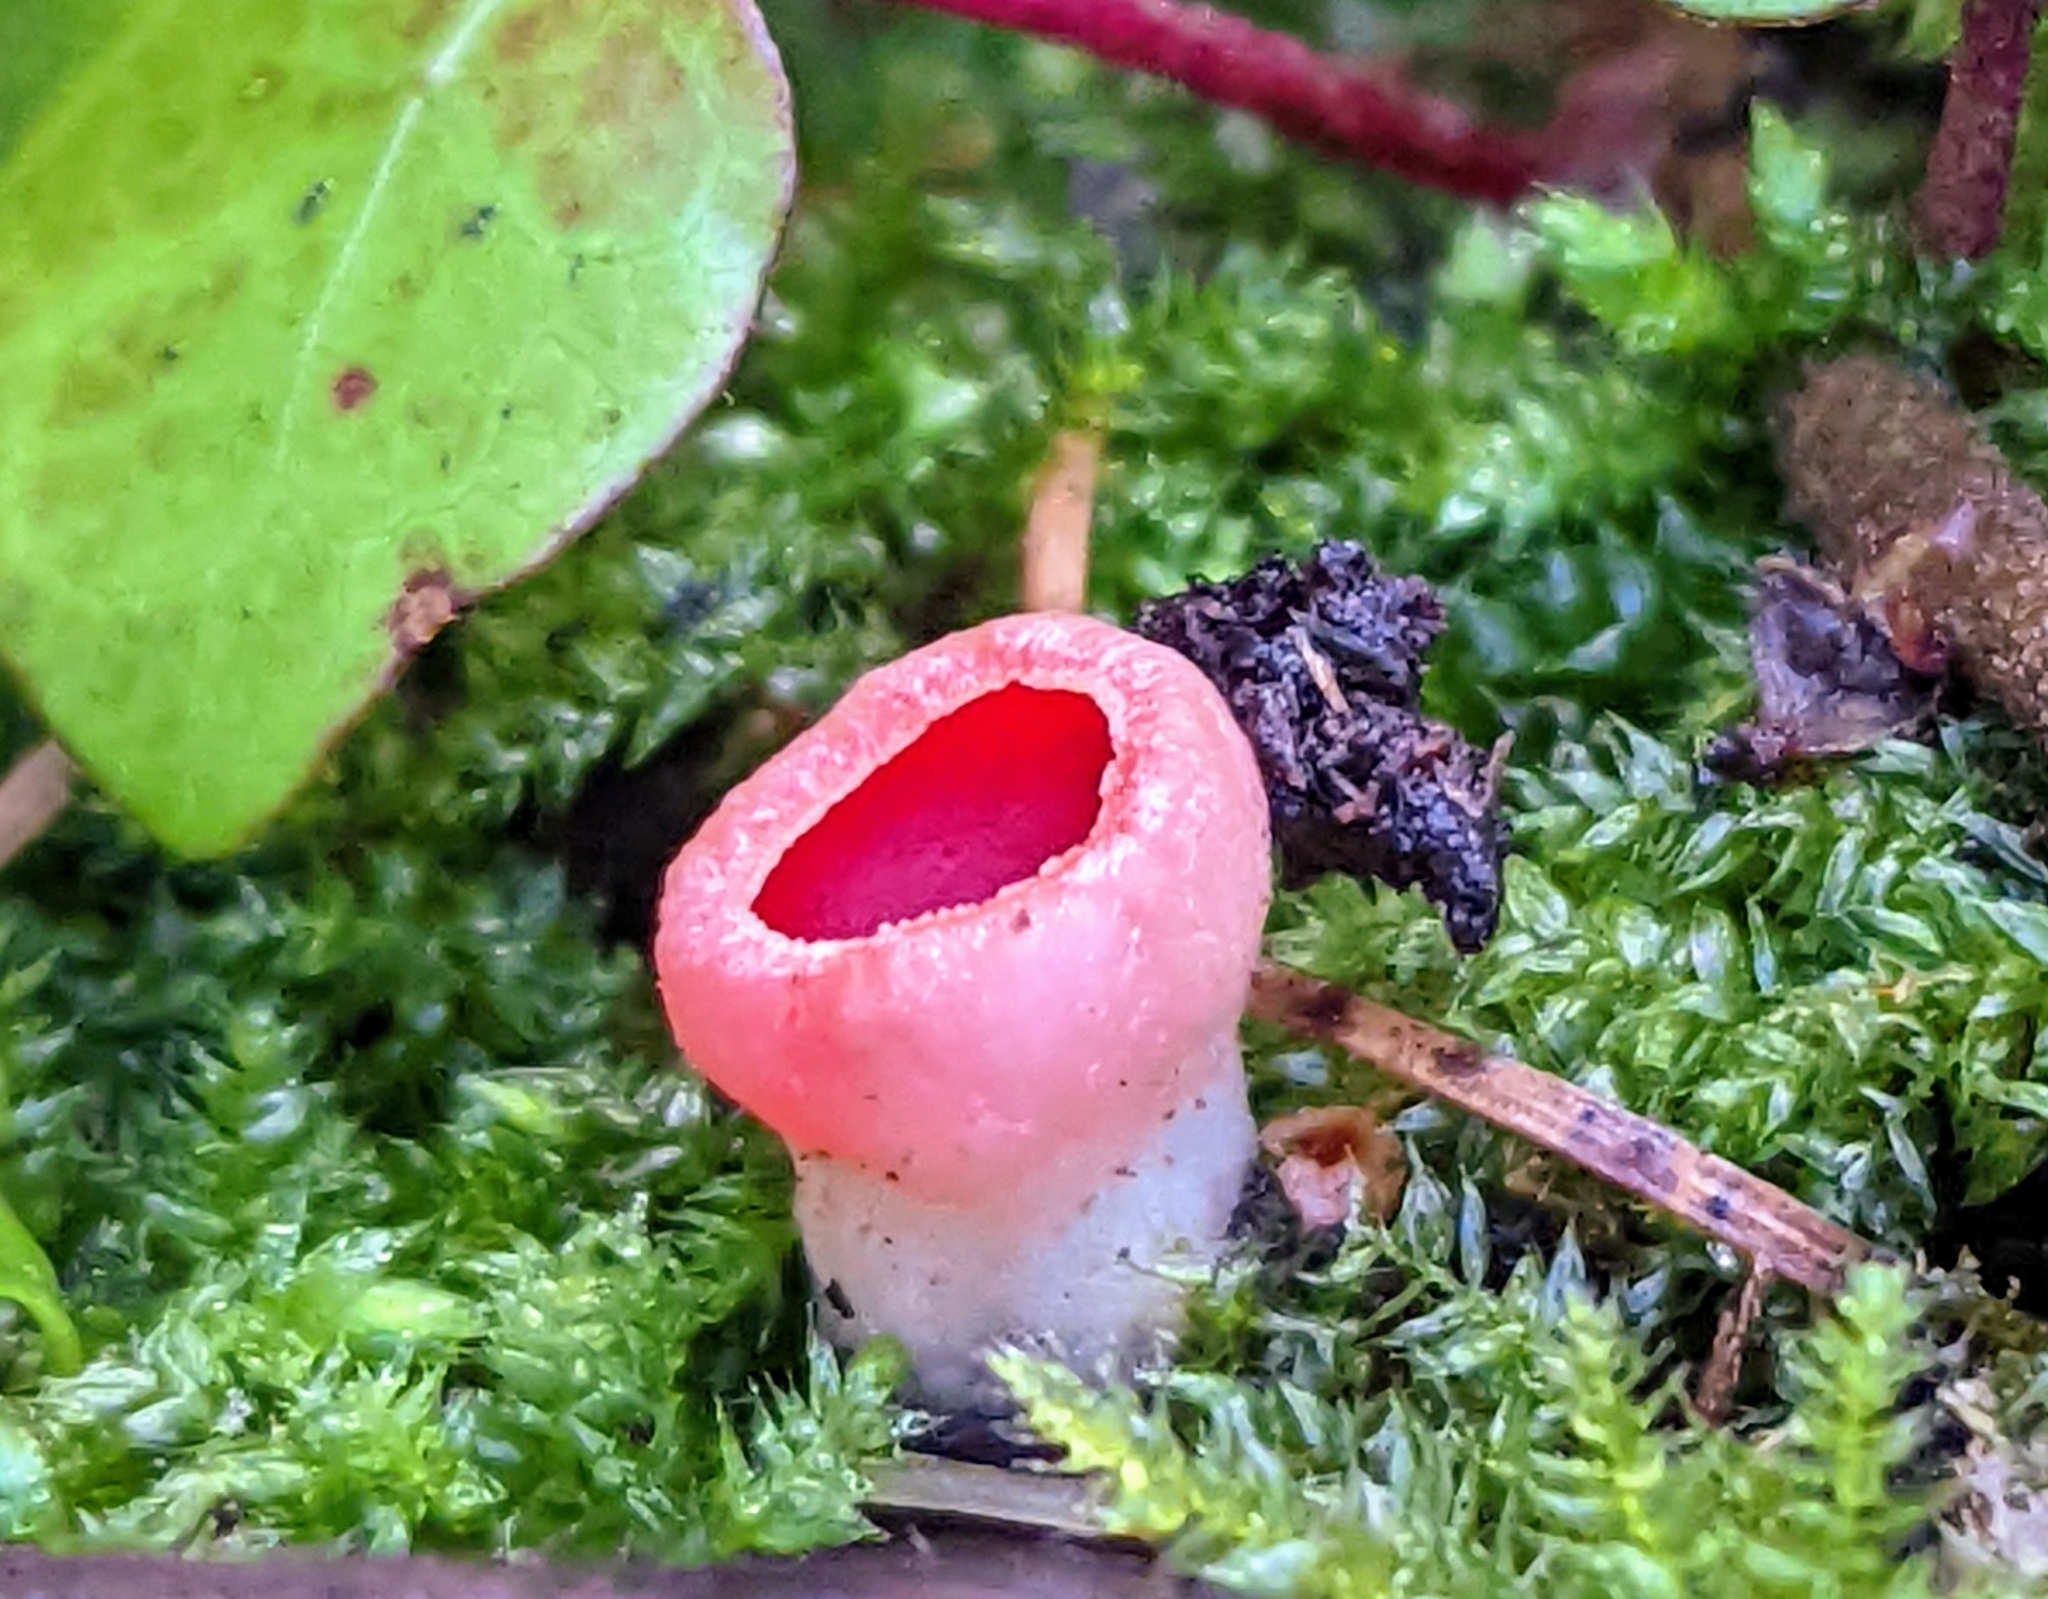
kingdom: Fungi
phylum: Ascomycota
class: Pezizomycetes
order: Pezizales
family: Sarcoscyphaceae
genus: Sarcoscypha
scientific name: Sarcoscypha
